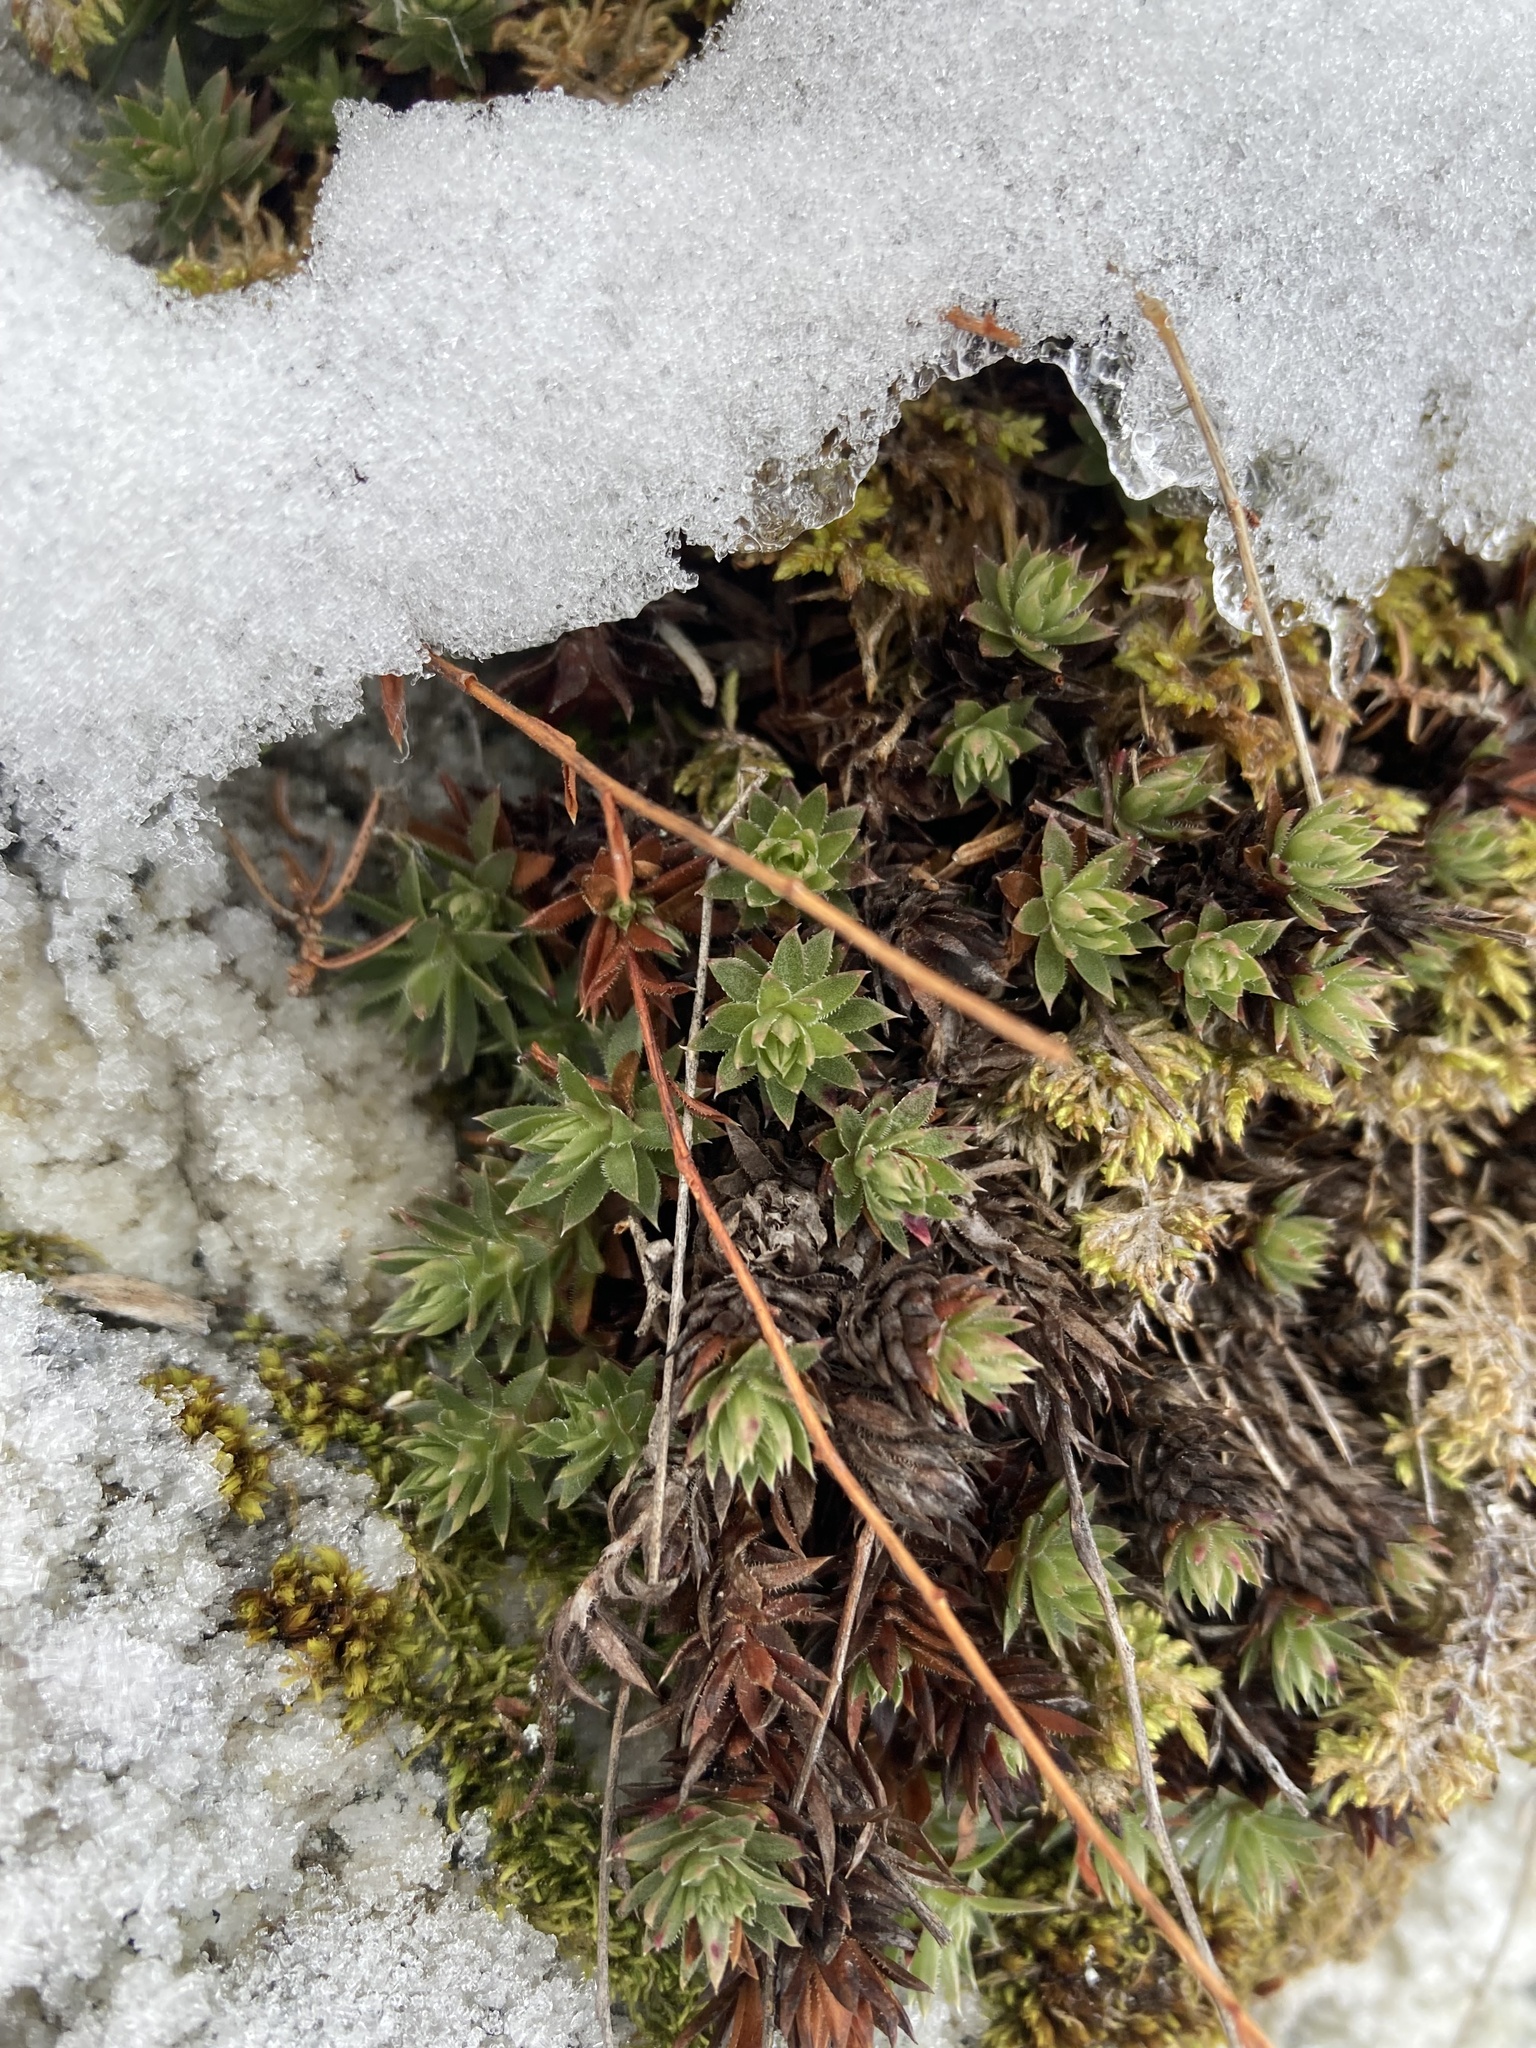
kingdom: Plantae
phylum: Tracheophyta
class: Magnoliopsida
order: Saxifragales
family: Saxifragaceae
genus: Saxifraga
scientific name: Saxifraga bronchialis
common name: Matted saxifrage
